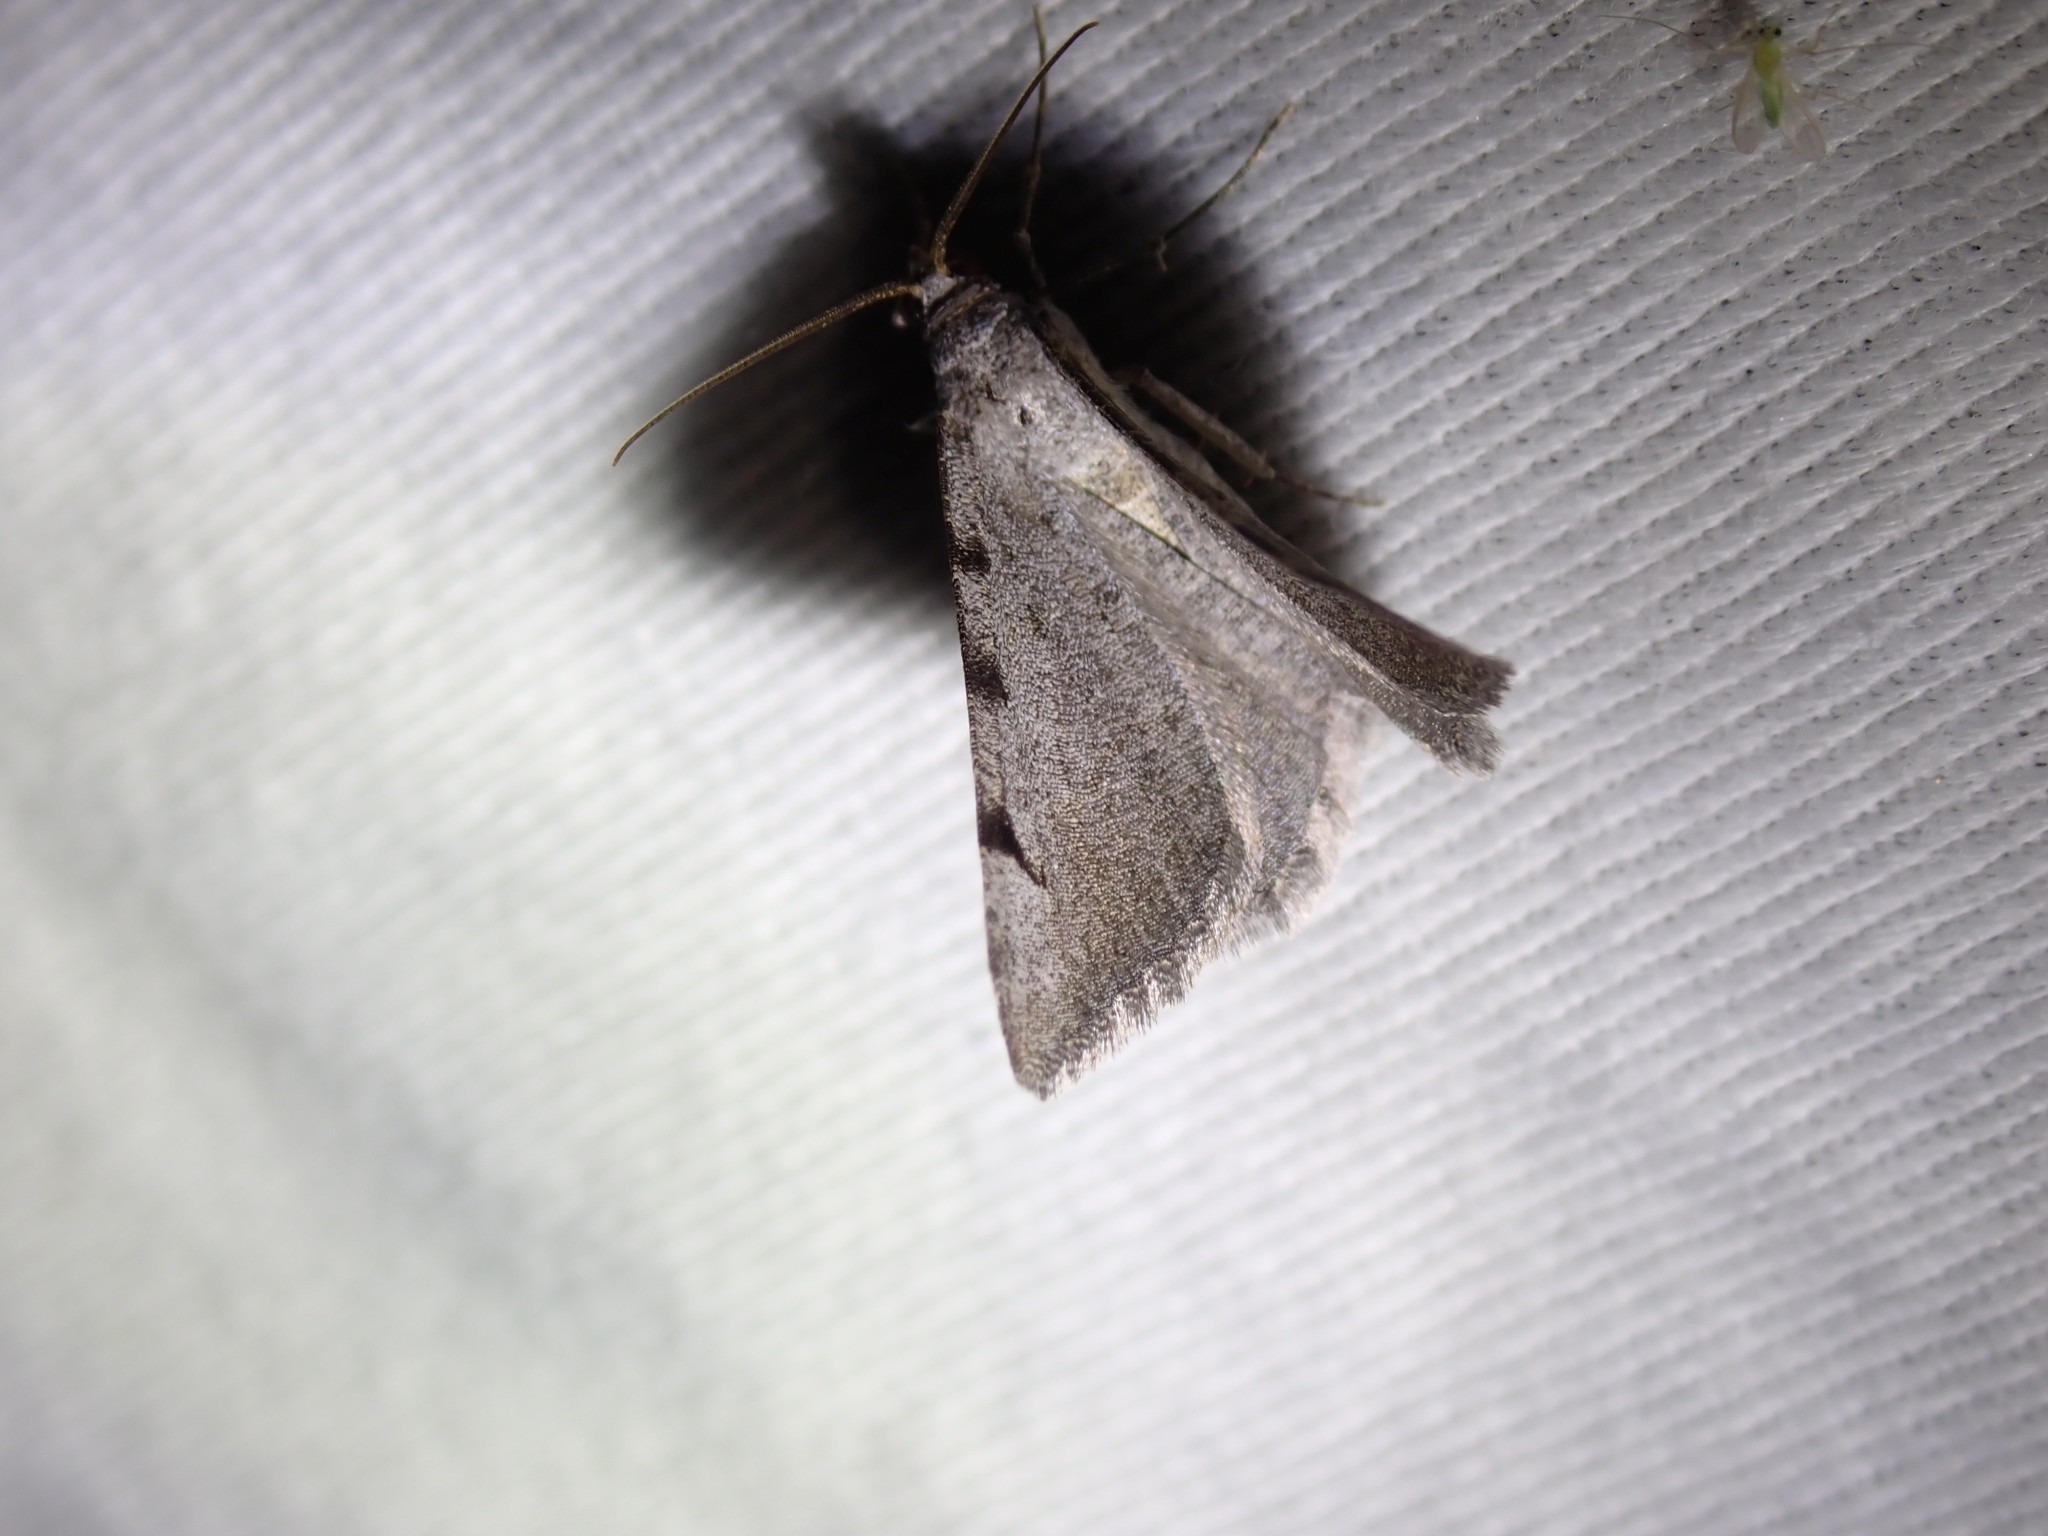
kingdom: Animalia
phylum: Arthropoda
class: Insecta
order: Lepidoptera
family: Geometridae
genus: Digrammia
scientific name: Digrammia triviata
